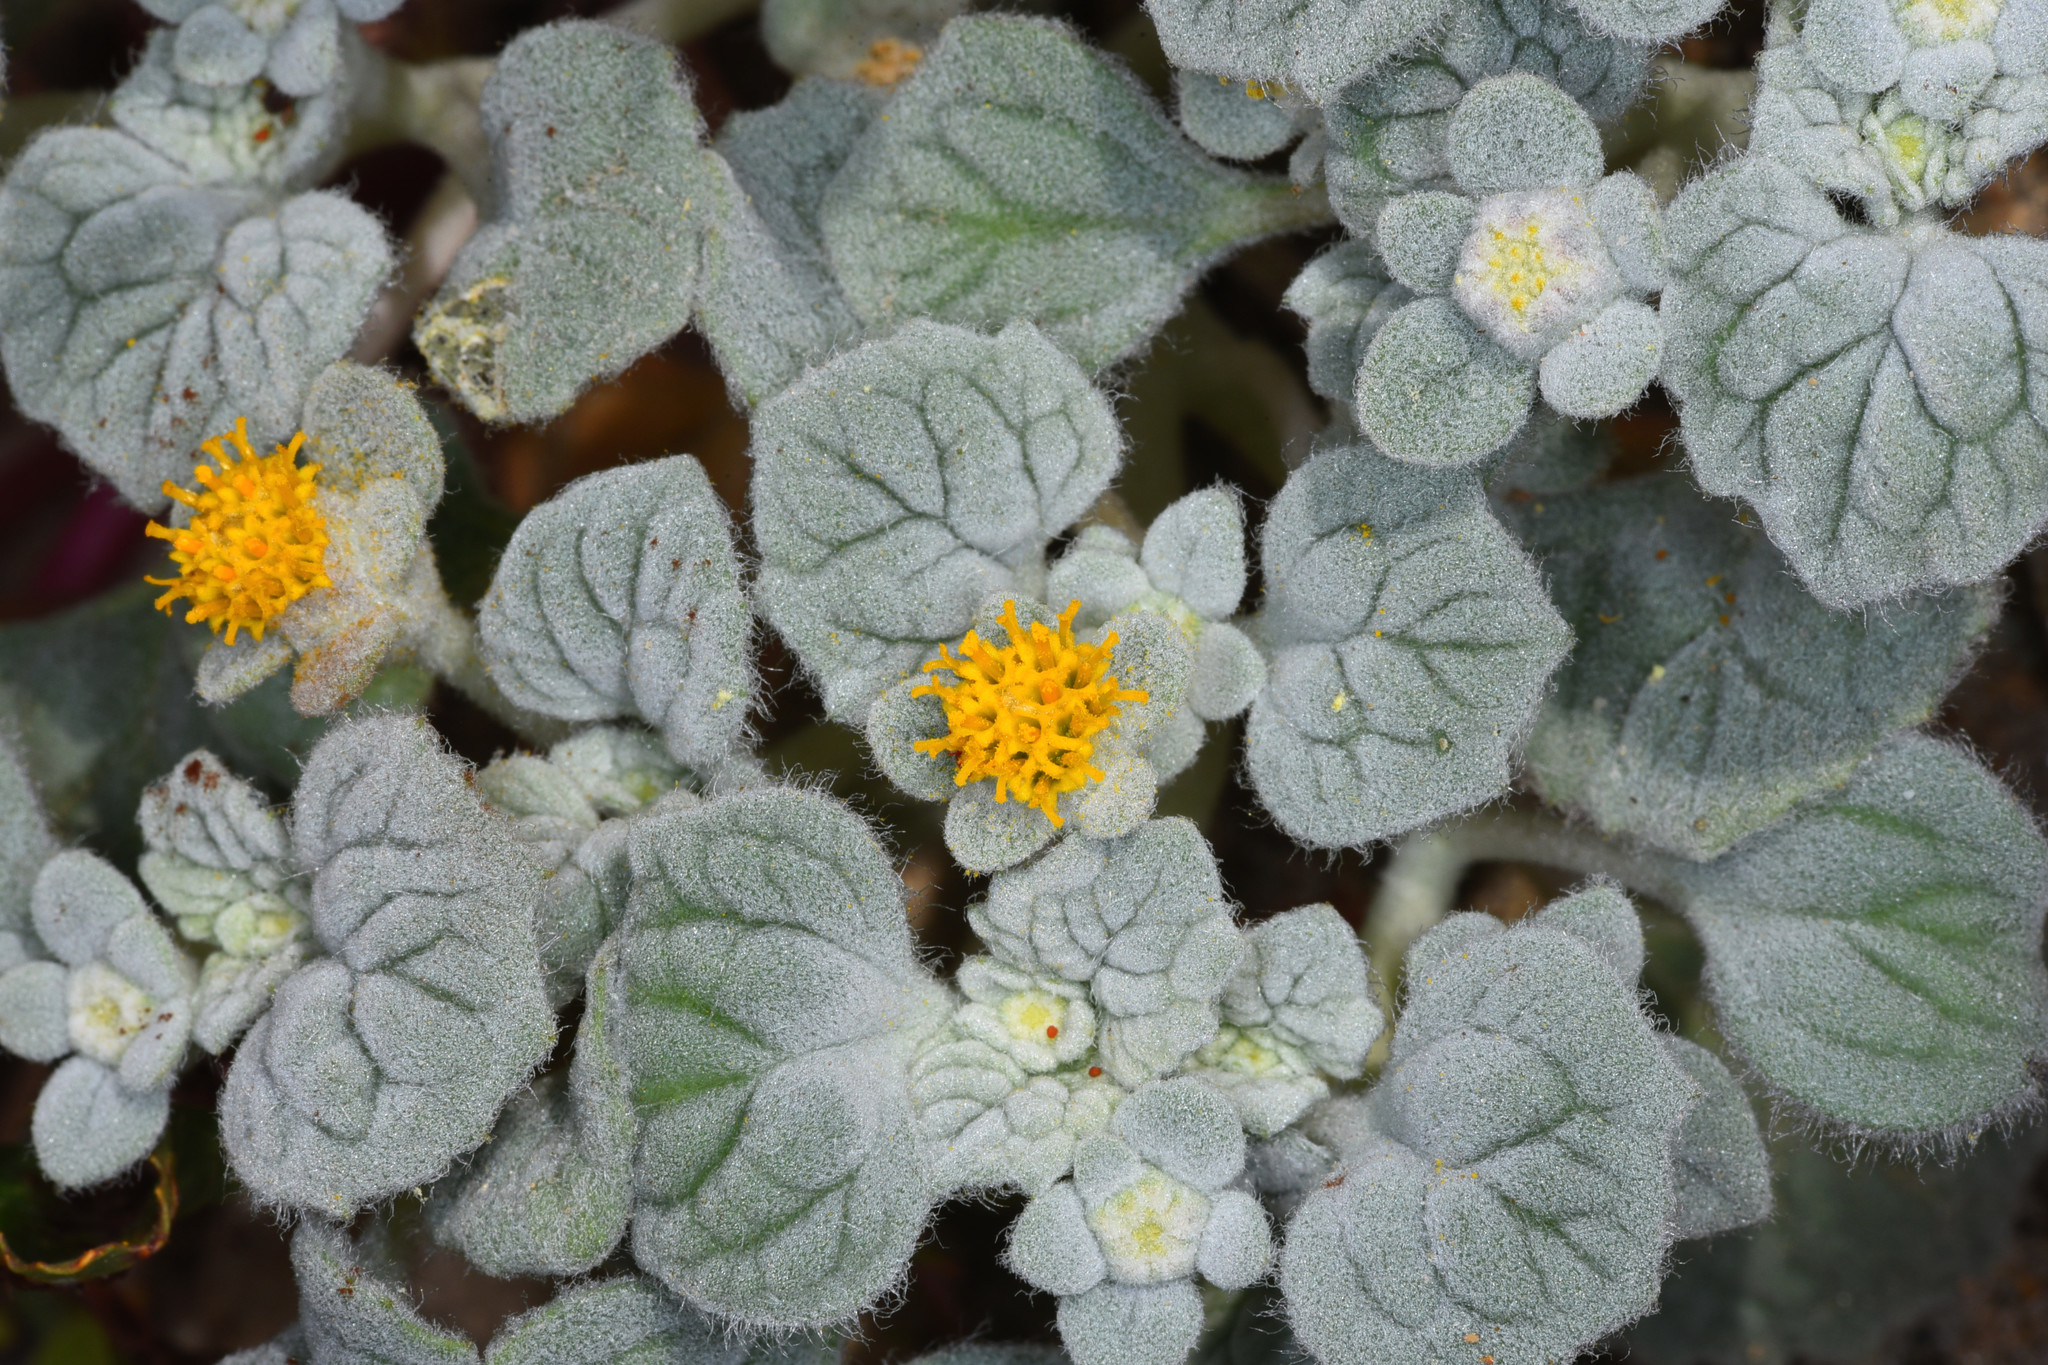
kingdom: Plantae
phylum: Tracheophyta
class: Magnoliopsida
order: Asterales
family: Asteraceae
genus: Psathyrotes
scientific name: Psathyrotes ramosissima
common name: Turtleback
